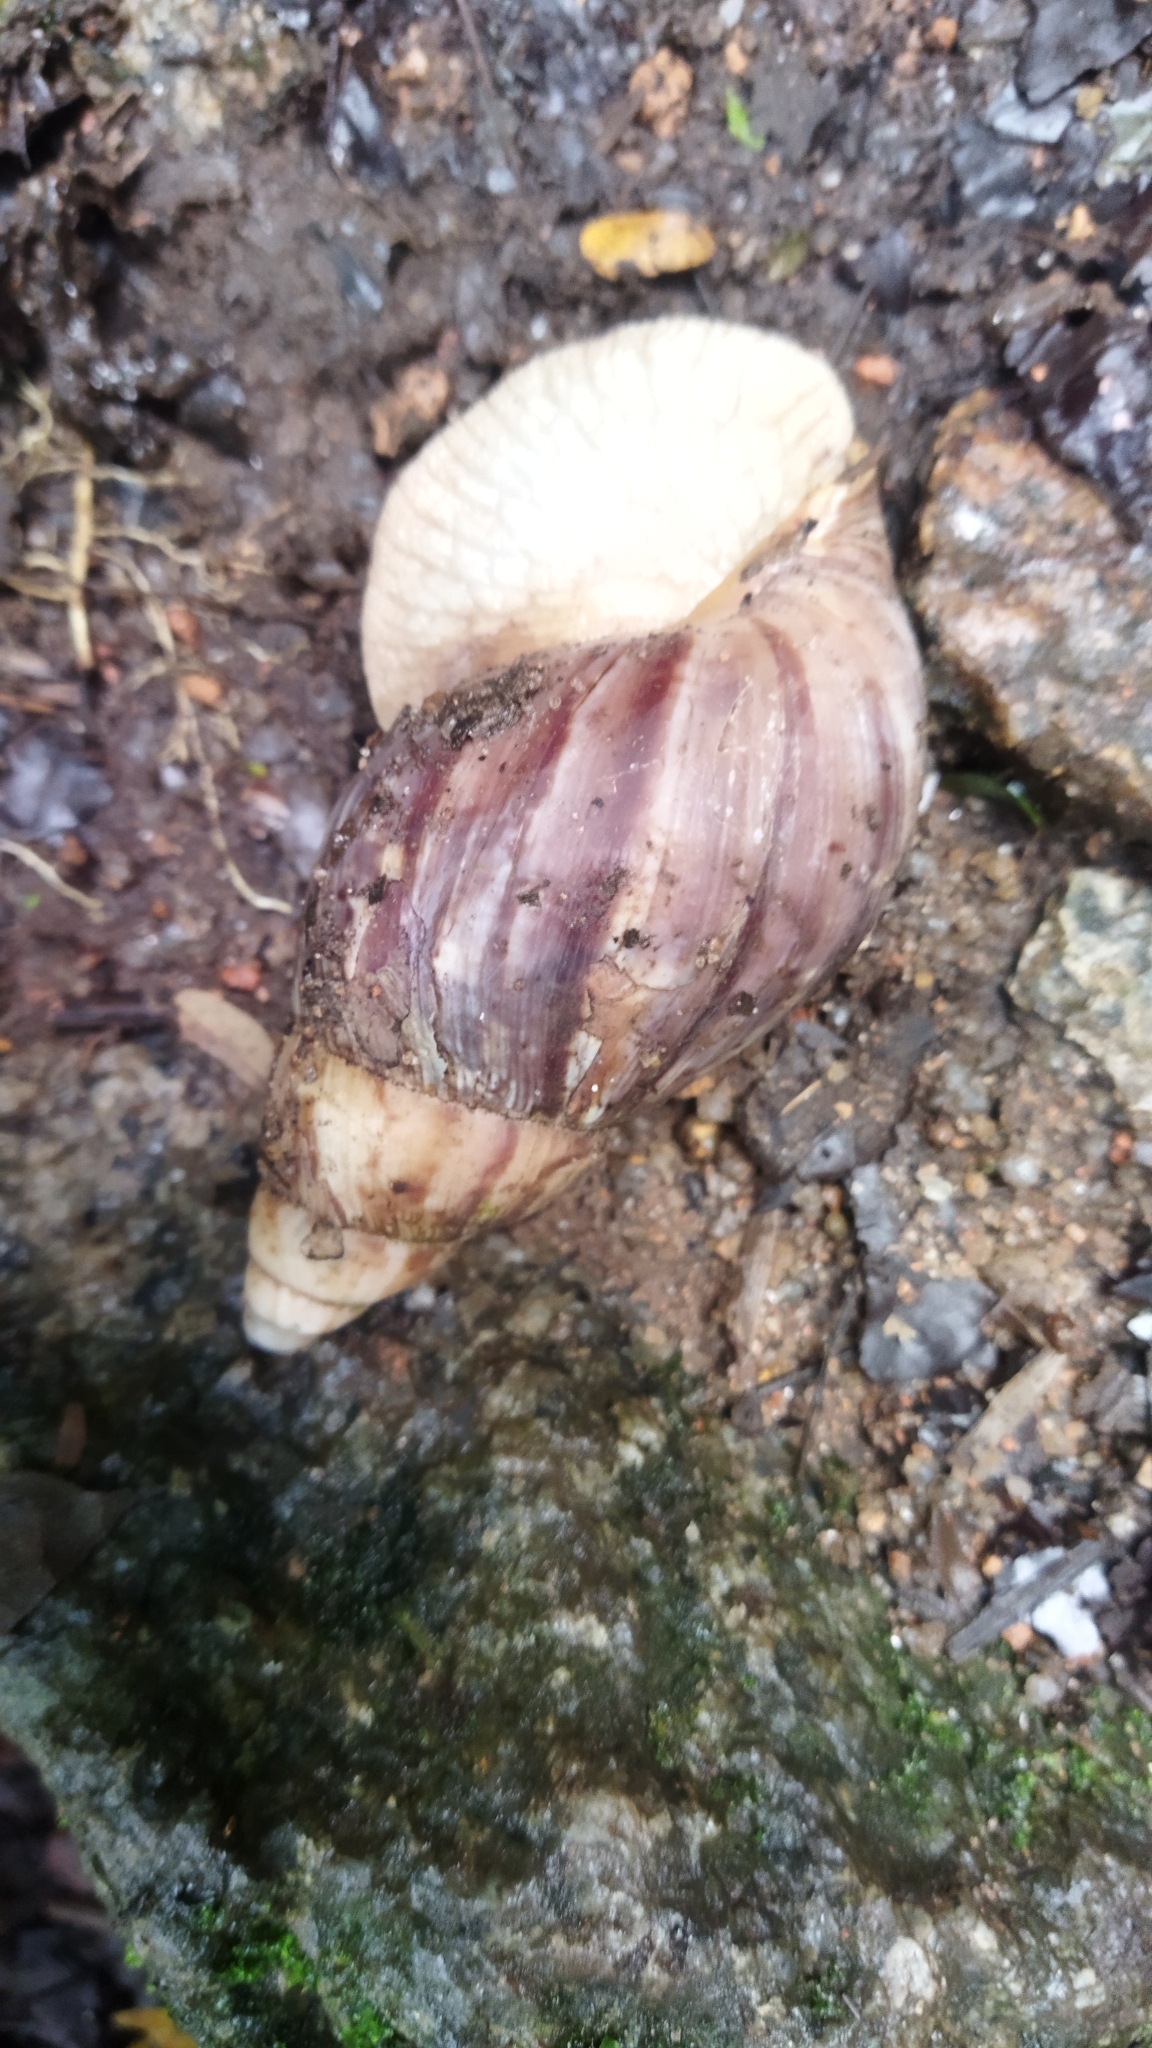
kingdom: Animalia
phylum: Mollusca
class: Gastropoda
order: Stylommatophora
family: Achatinidae
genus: Lissachatina
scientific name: Lissachatina immaculata
